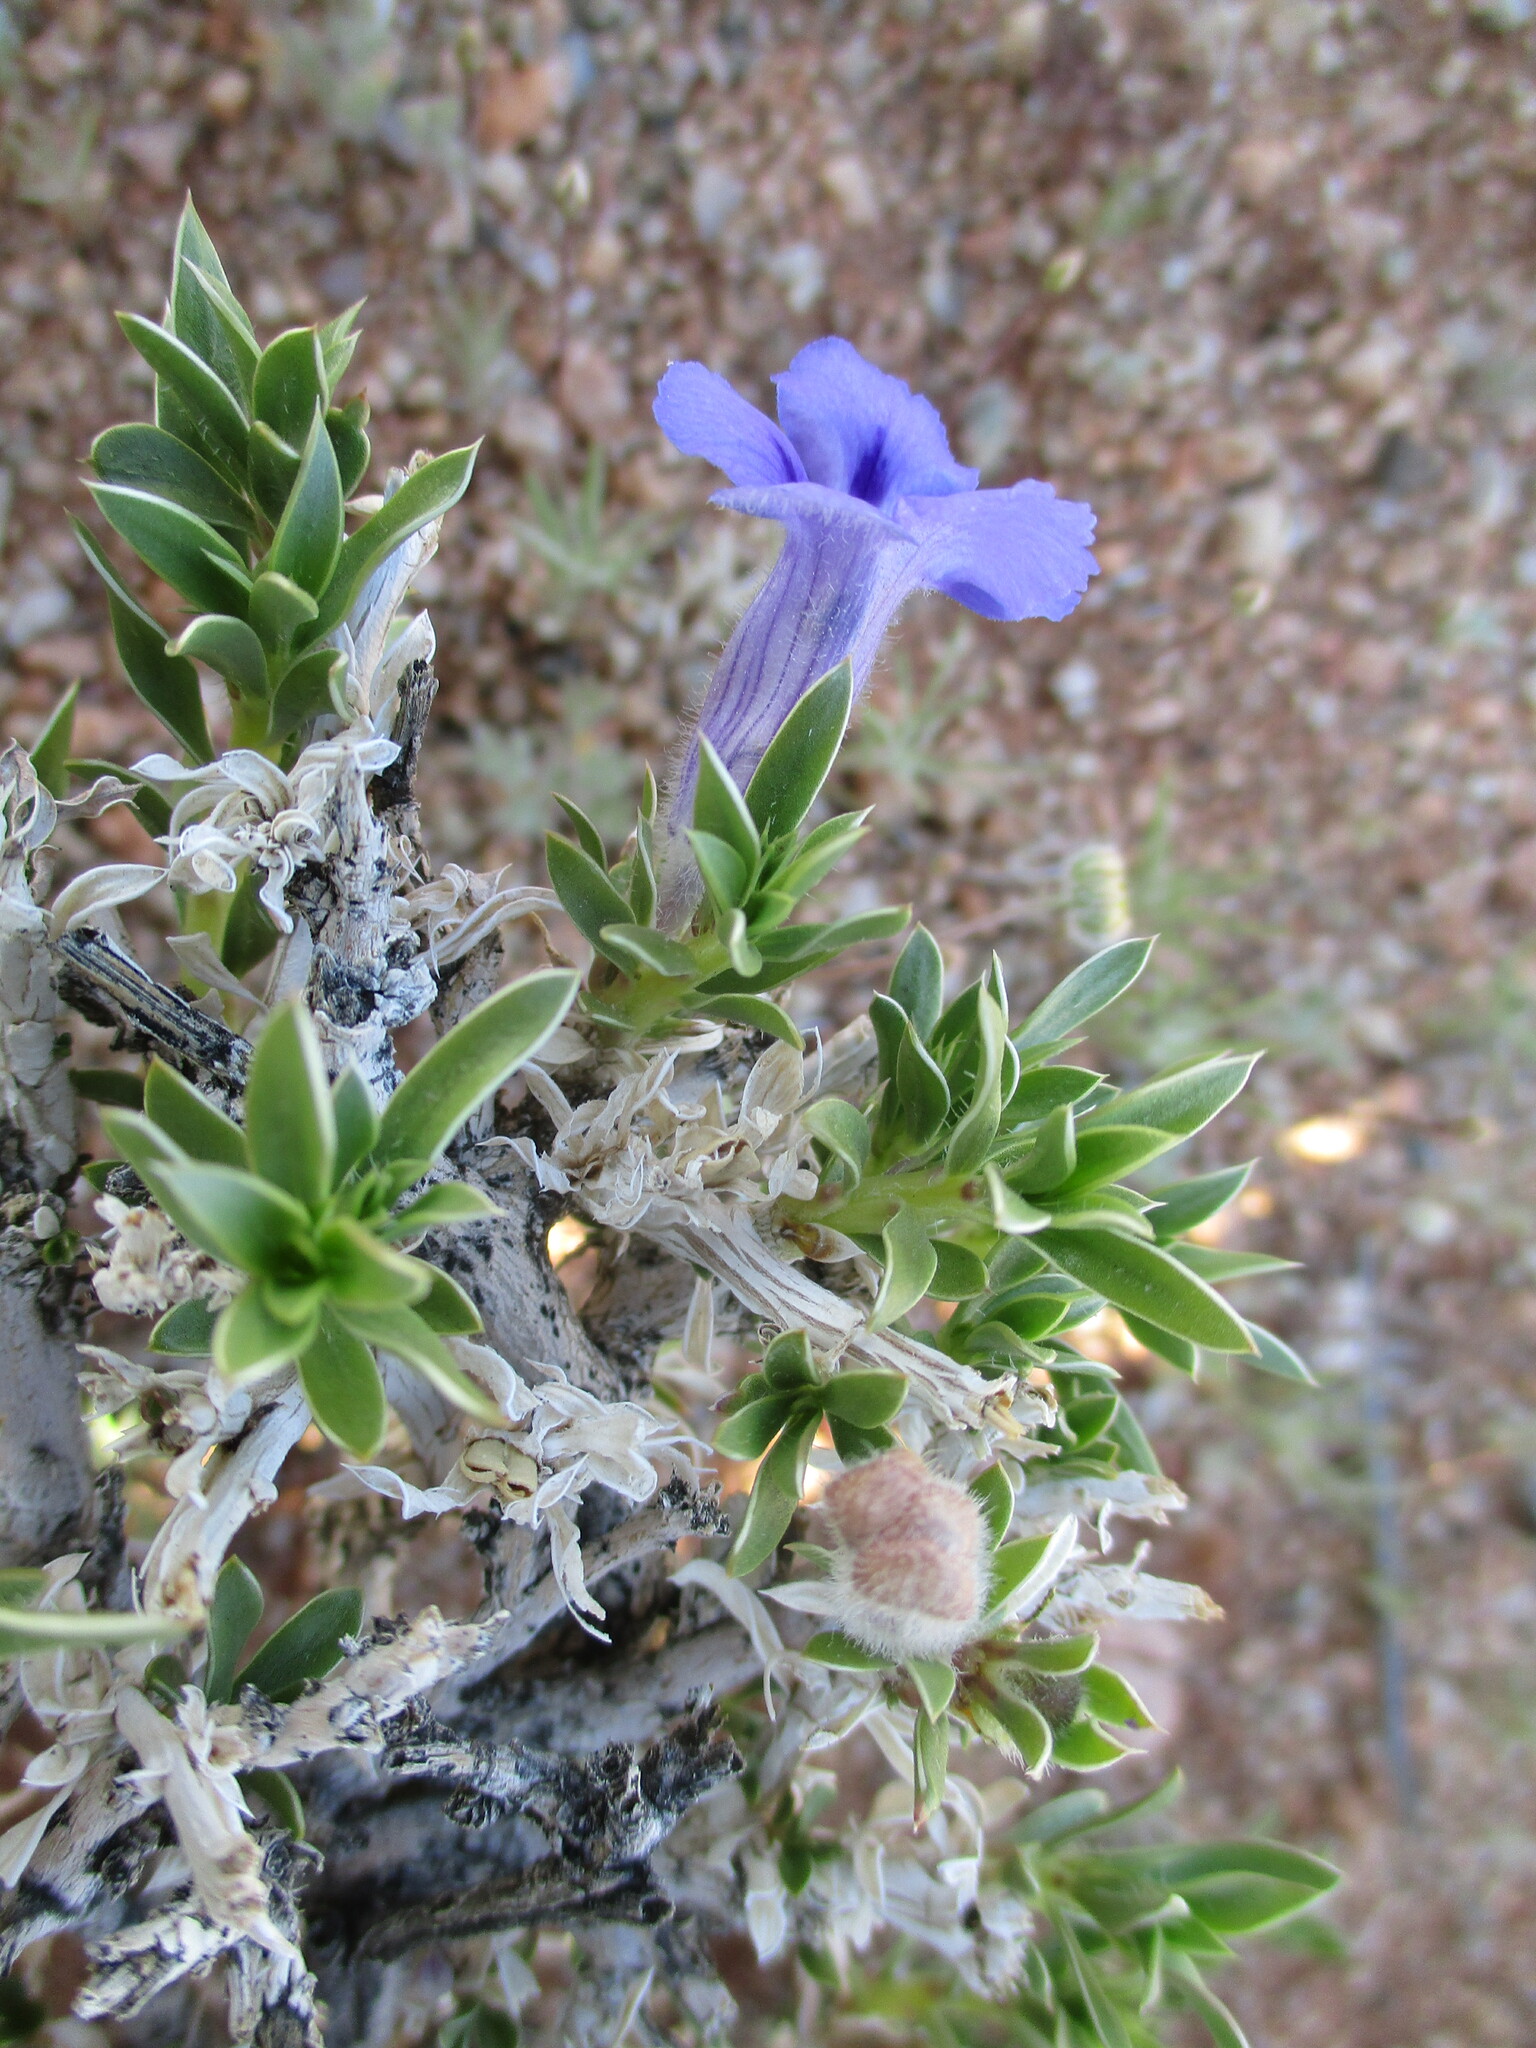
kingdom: Plantae
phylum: Tracheophyta
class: Magnoliopsida
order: Lamiales
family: Scrophulariaceae
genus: Aptosimum
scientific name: Aptosimum albomarginatum
